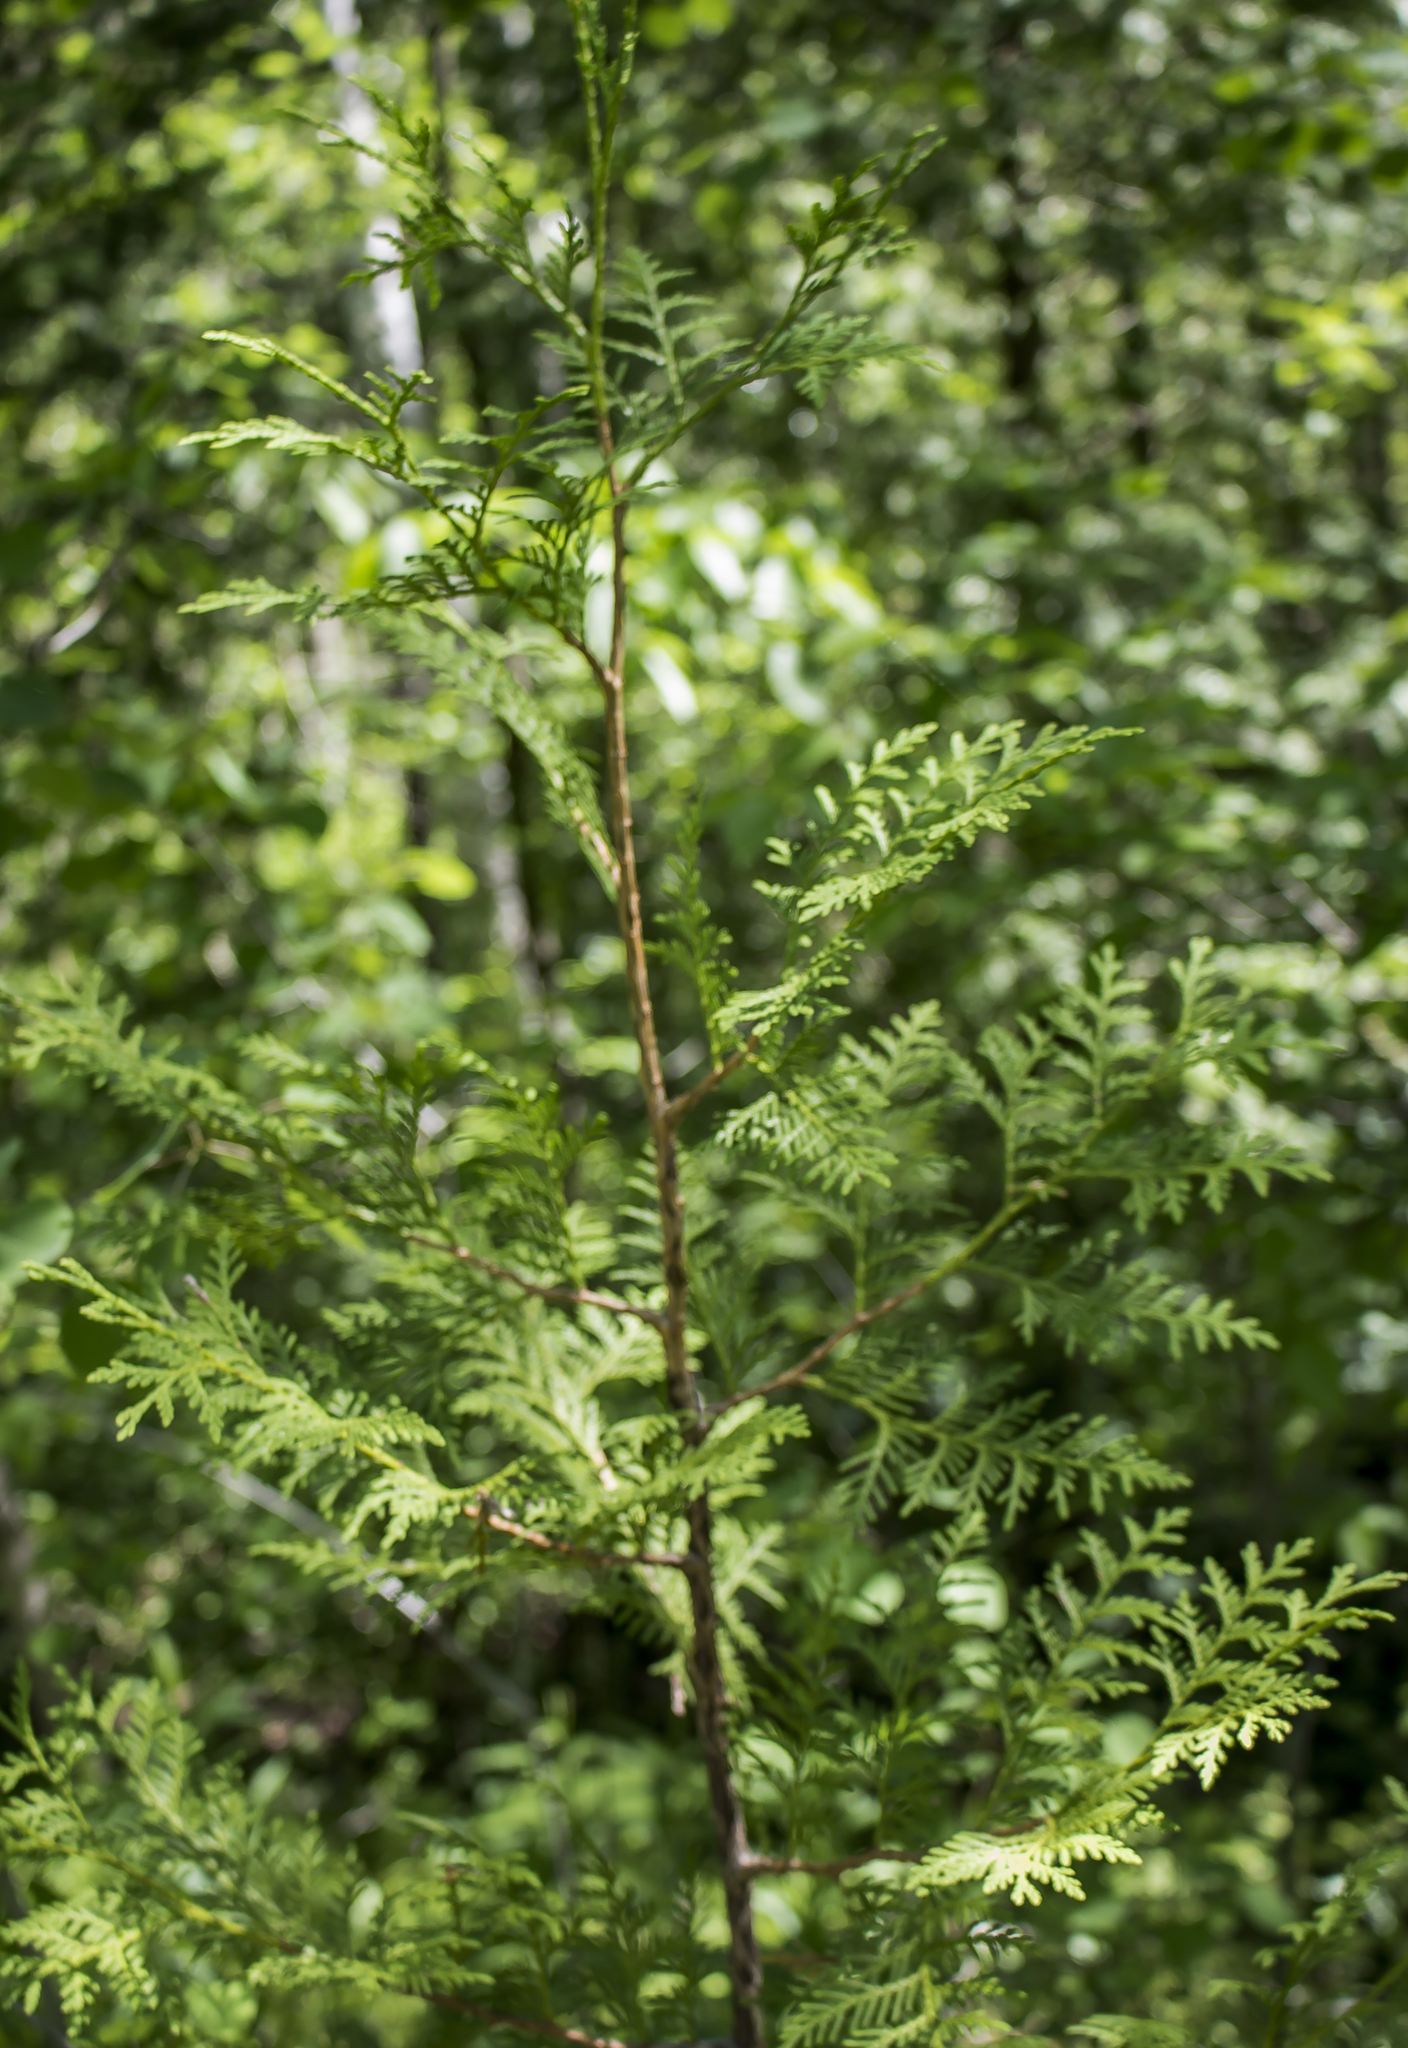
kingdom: Plantae
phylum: Tracheophyta
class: Pinopsida
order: Pinales
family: Cupressaceae
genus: Thuja
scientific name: Thuja occidentalis
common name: Northern white-cedar
